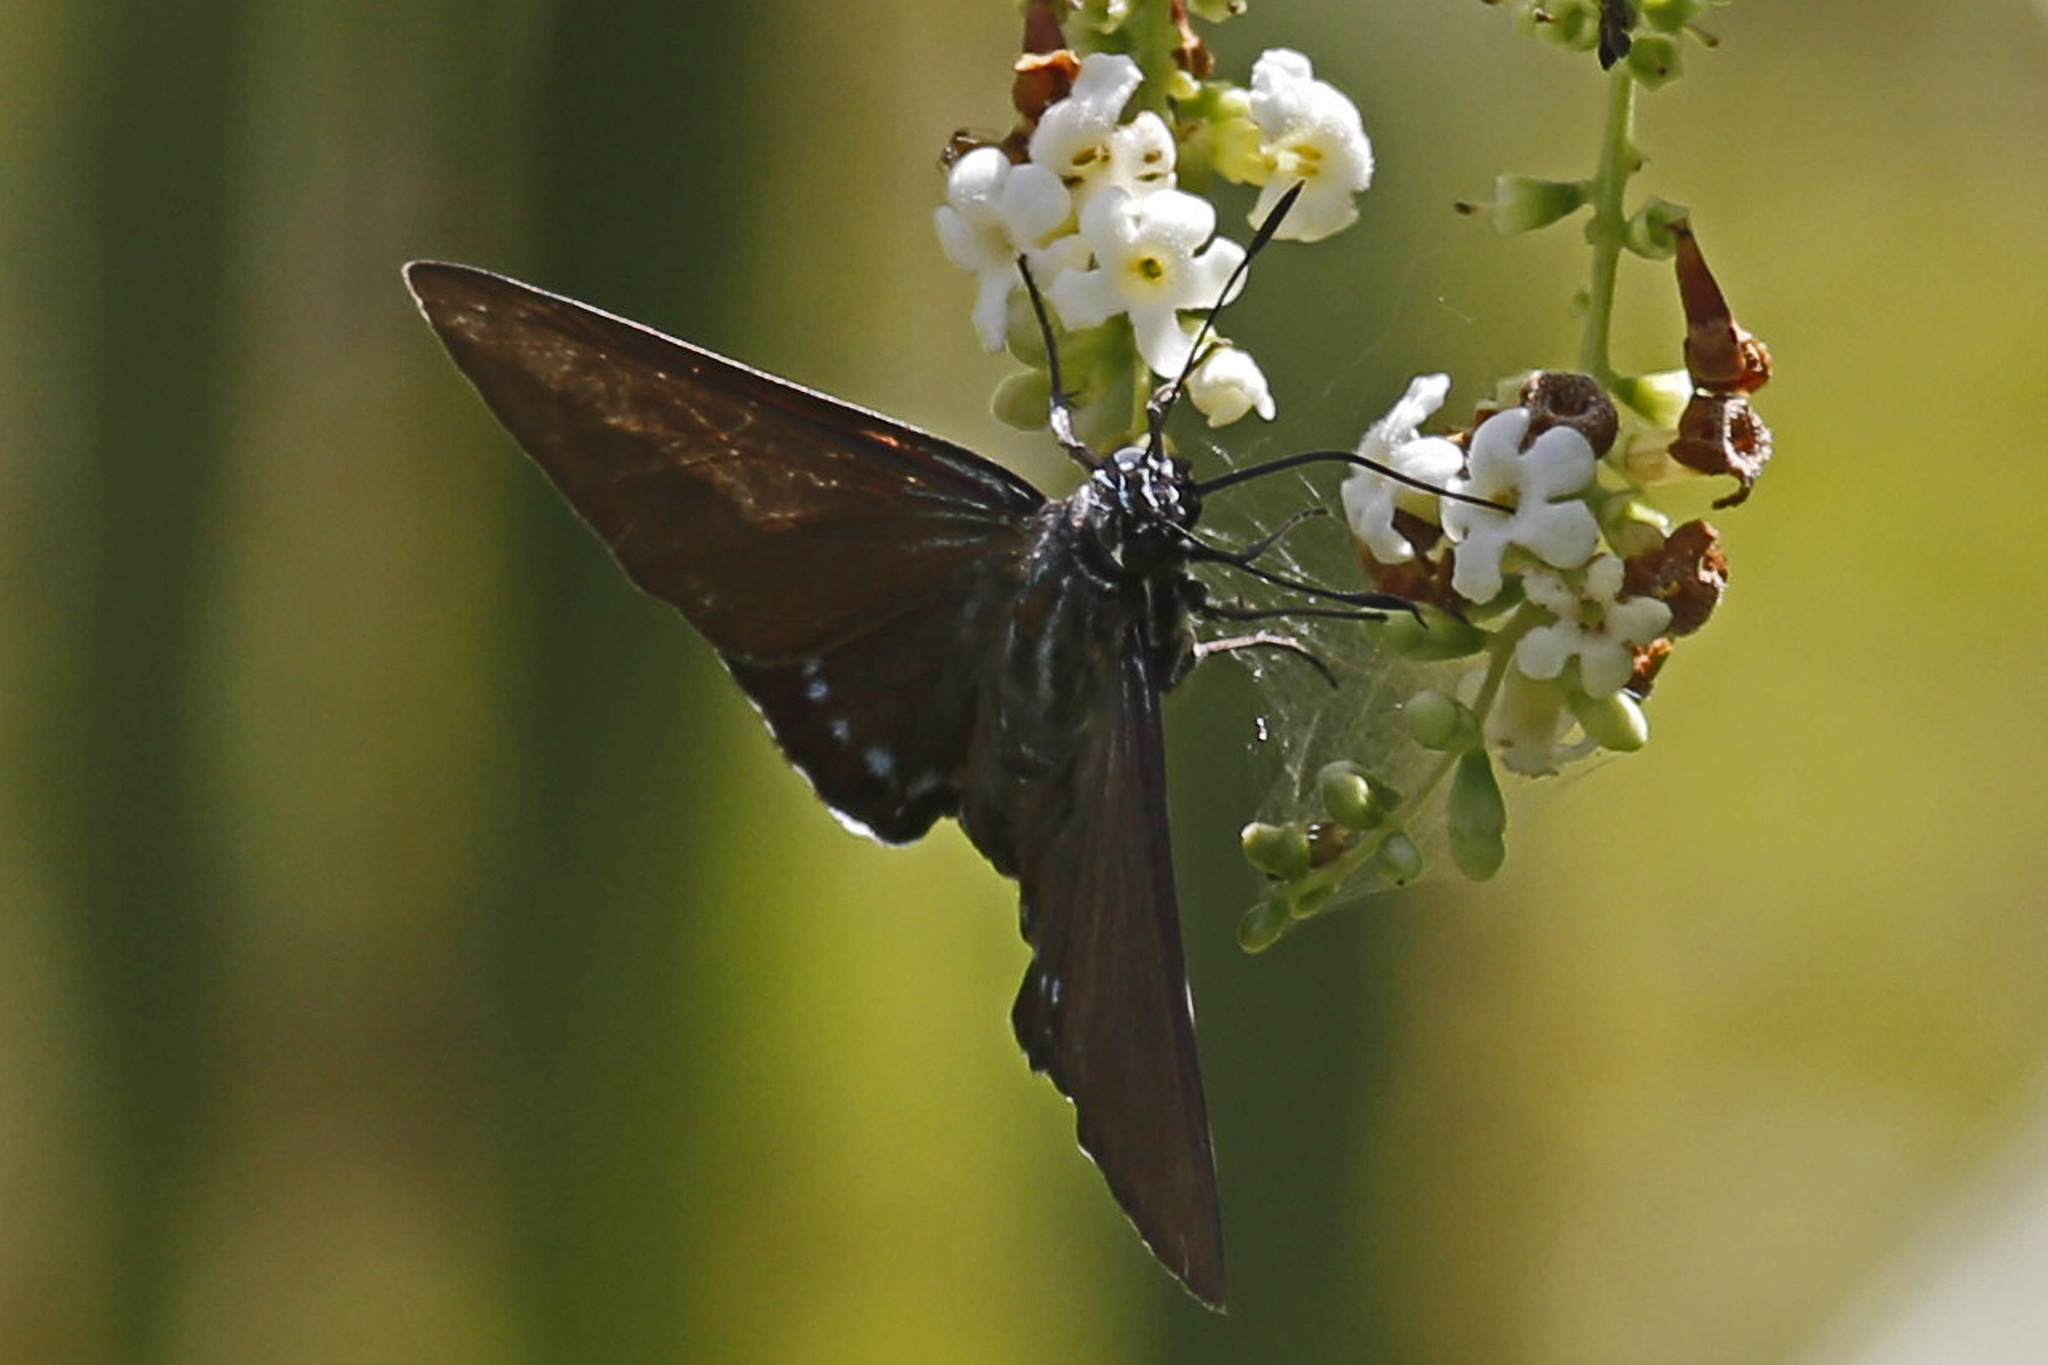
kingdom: Animalia
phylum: Arthropoda
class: Insecta
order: Lepidoptera
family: Hesperiidae
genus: Phocides
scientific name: Phocides pigmalion
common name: Mangrove skipper
